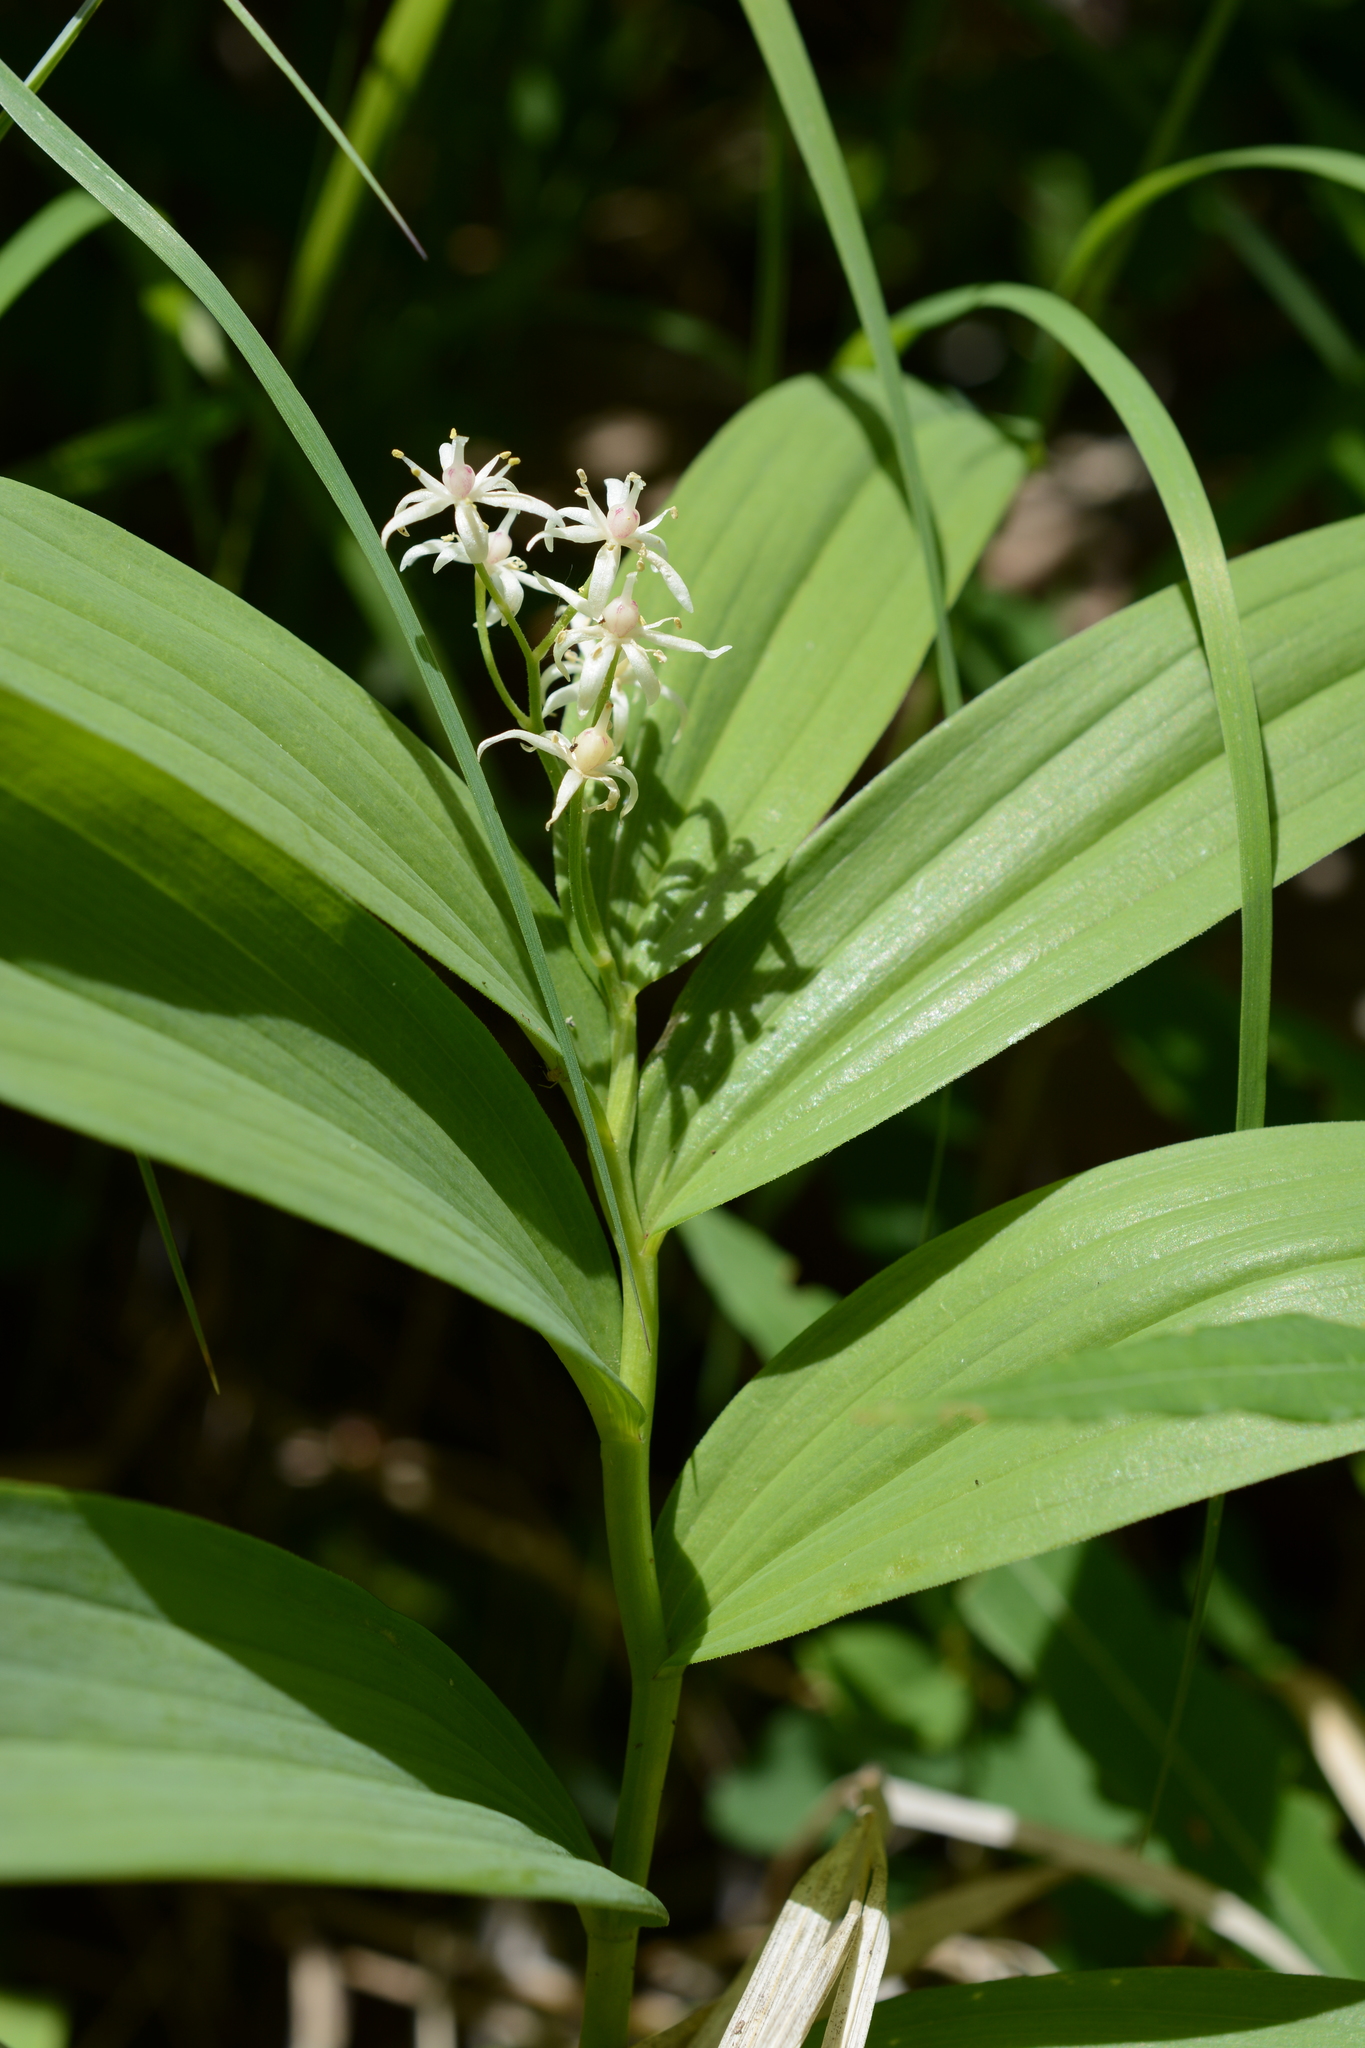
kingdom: Plantae
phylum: Tracheophyta
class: Liliopsida
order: Asparagales
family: Asparagaceae
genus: Maianthemum
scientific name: Maianthemum stellatum
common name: Little false solomon's seal
